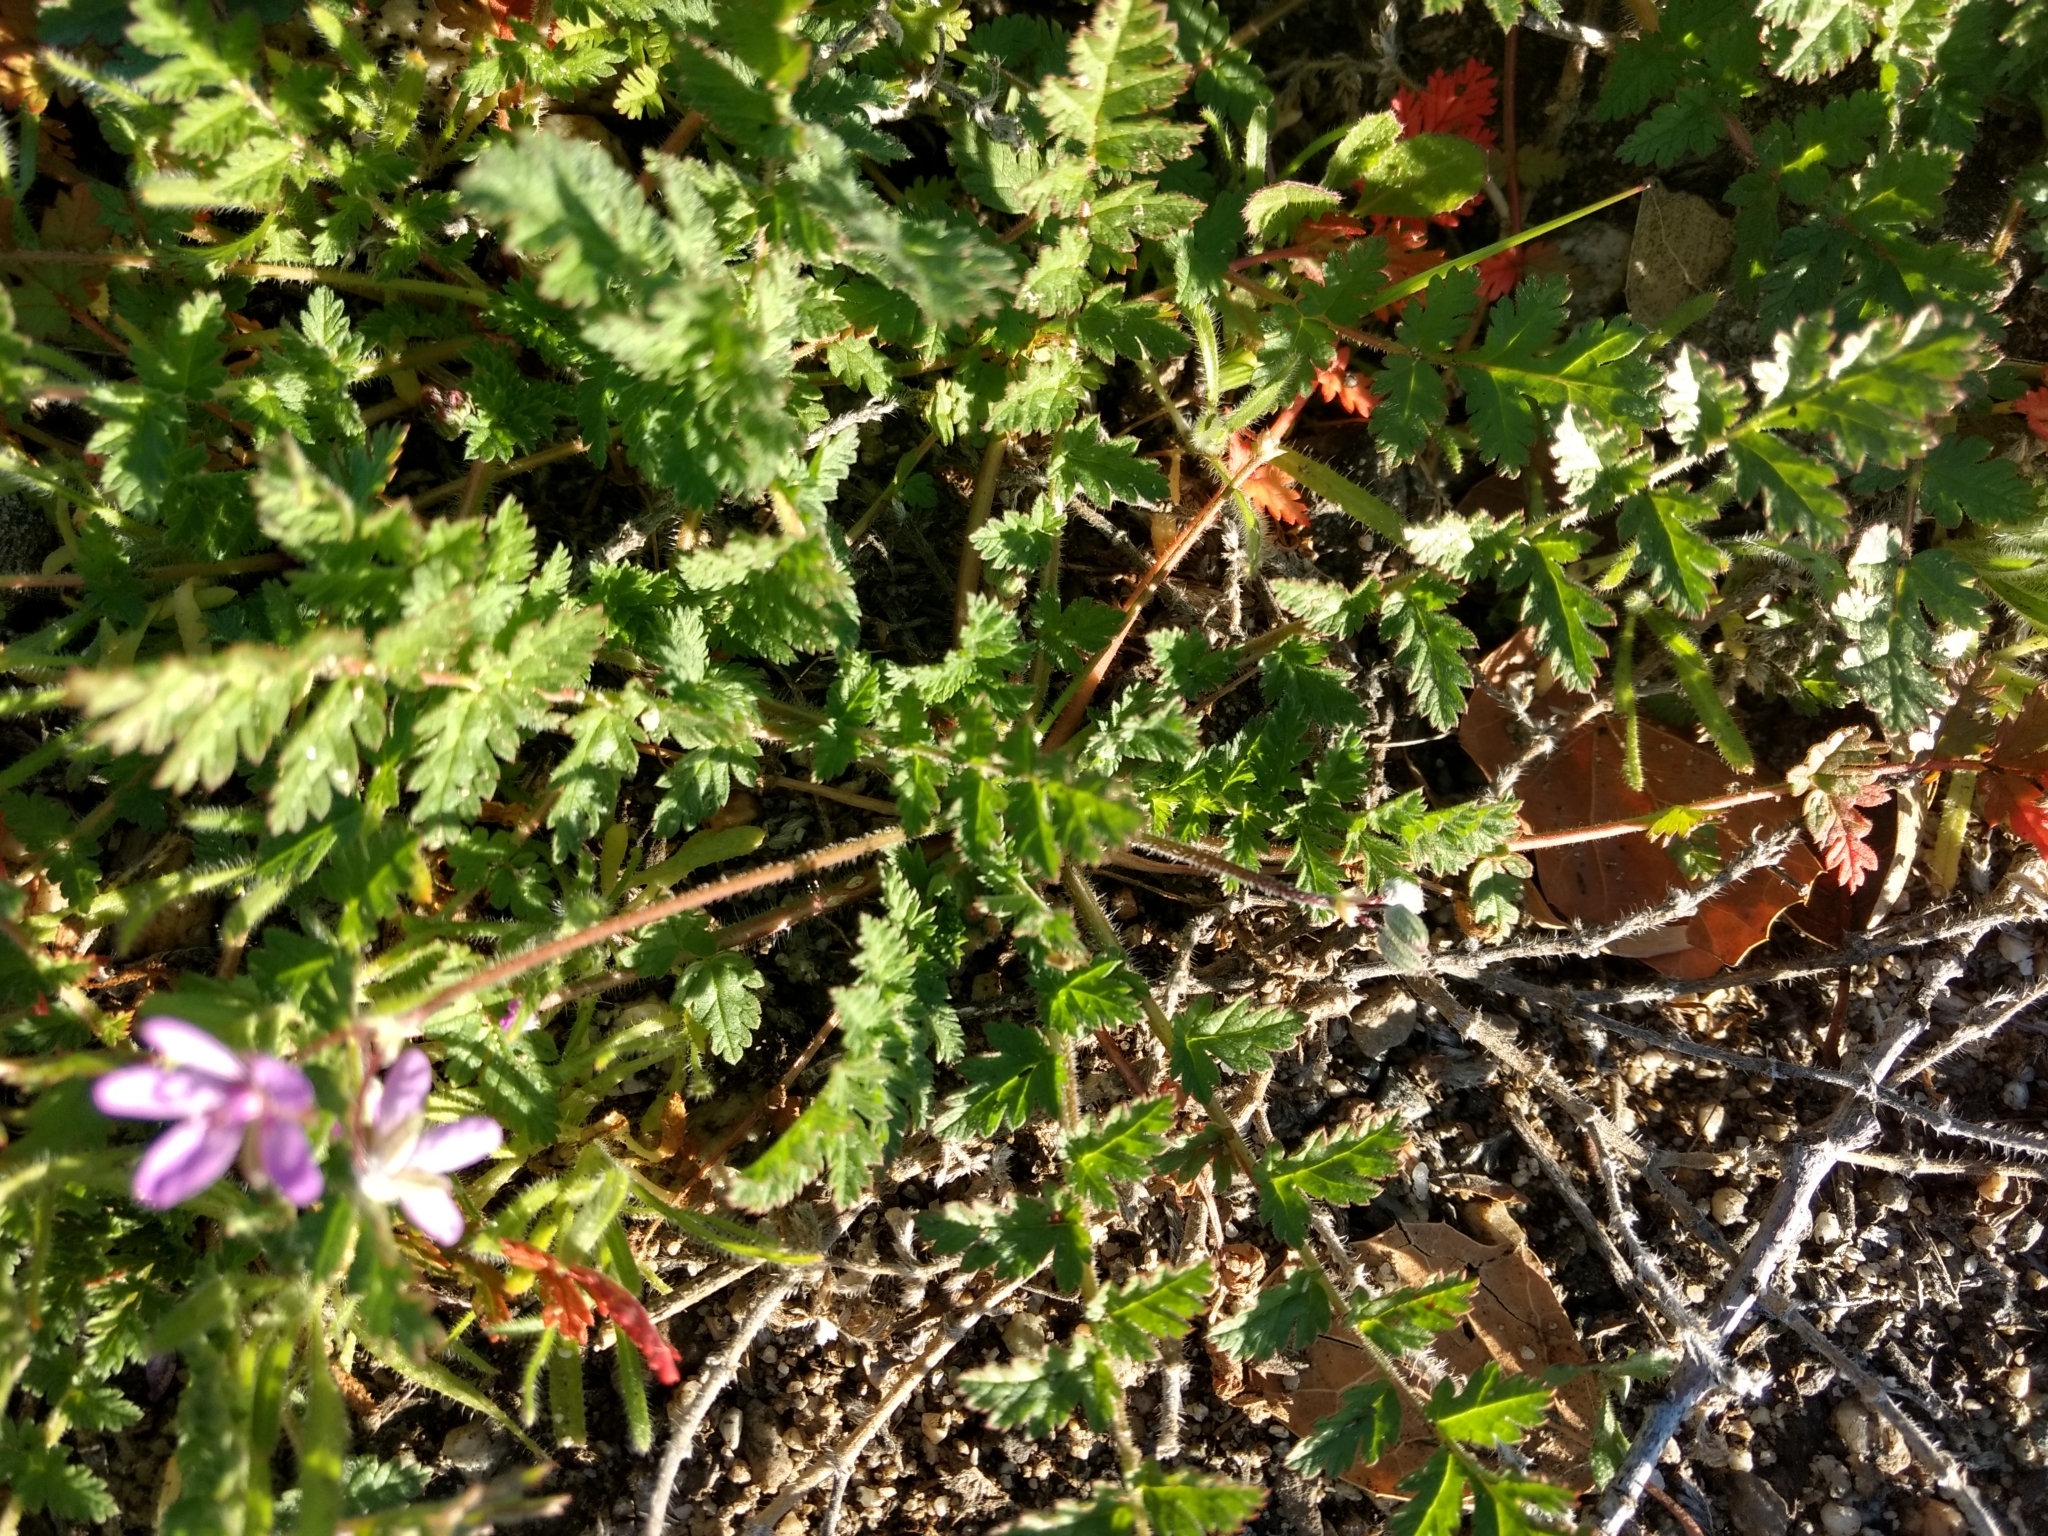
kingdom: Plantae
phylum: Tracheophyta
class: Magnoliopsida
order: Geraniales
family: Geraniaceae
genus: Erodium
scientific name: Erodium cicutarium
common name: Common stork's-bill
